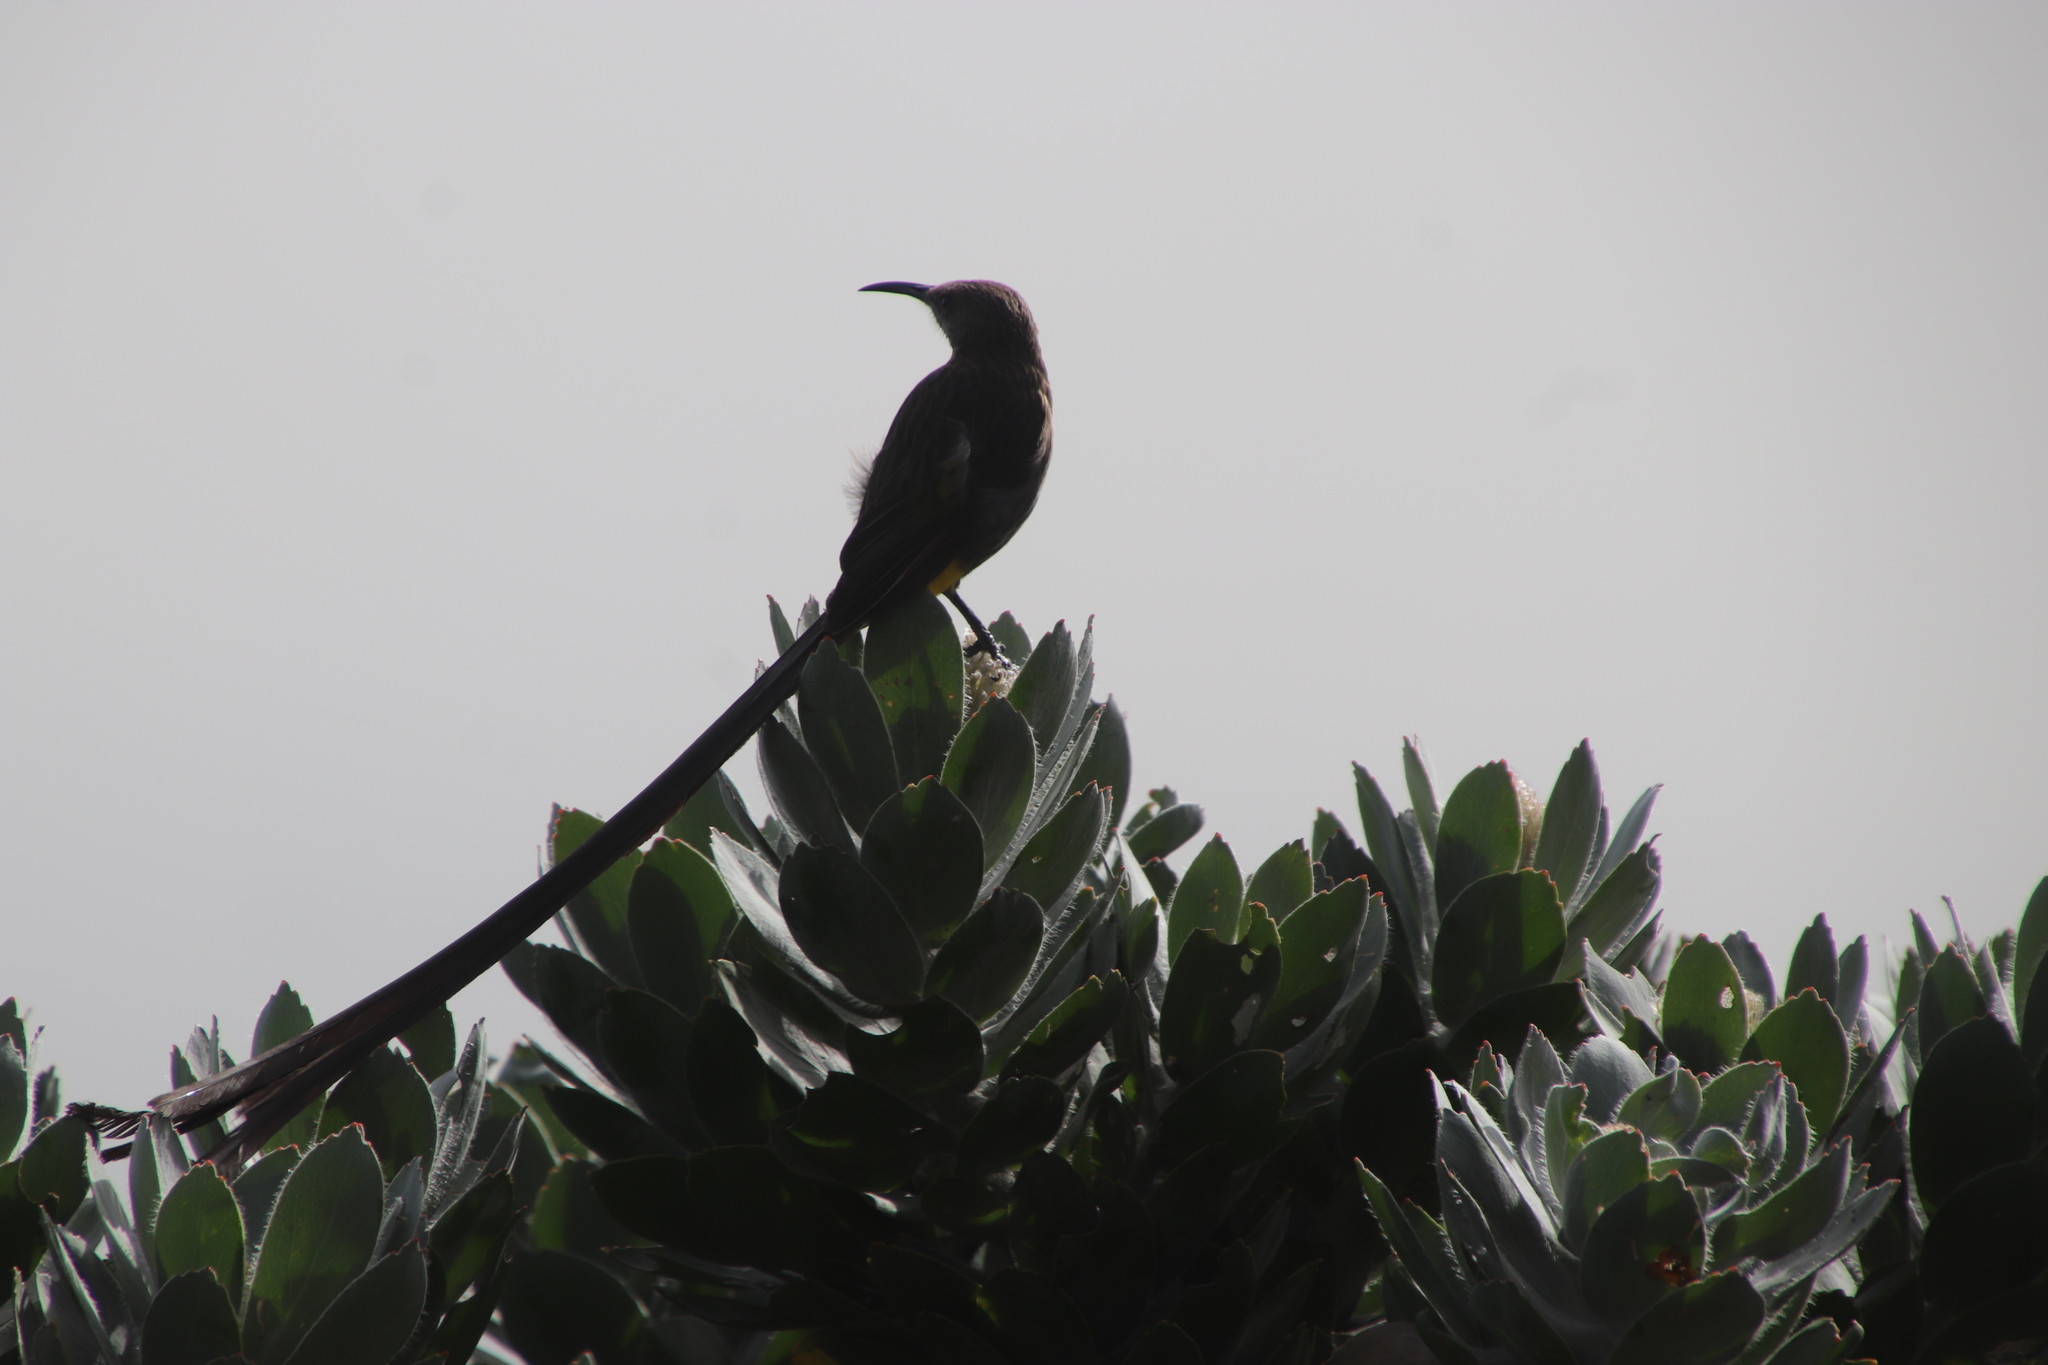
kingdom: Animalia
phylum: Chordata
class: Aves
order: Passeriformes
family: Promeropidae
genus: Promerops
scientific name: Promerops cafer
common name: Cape sugarbird
